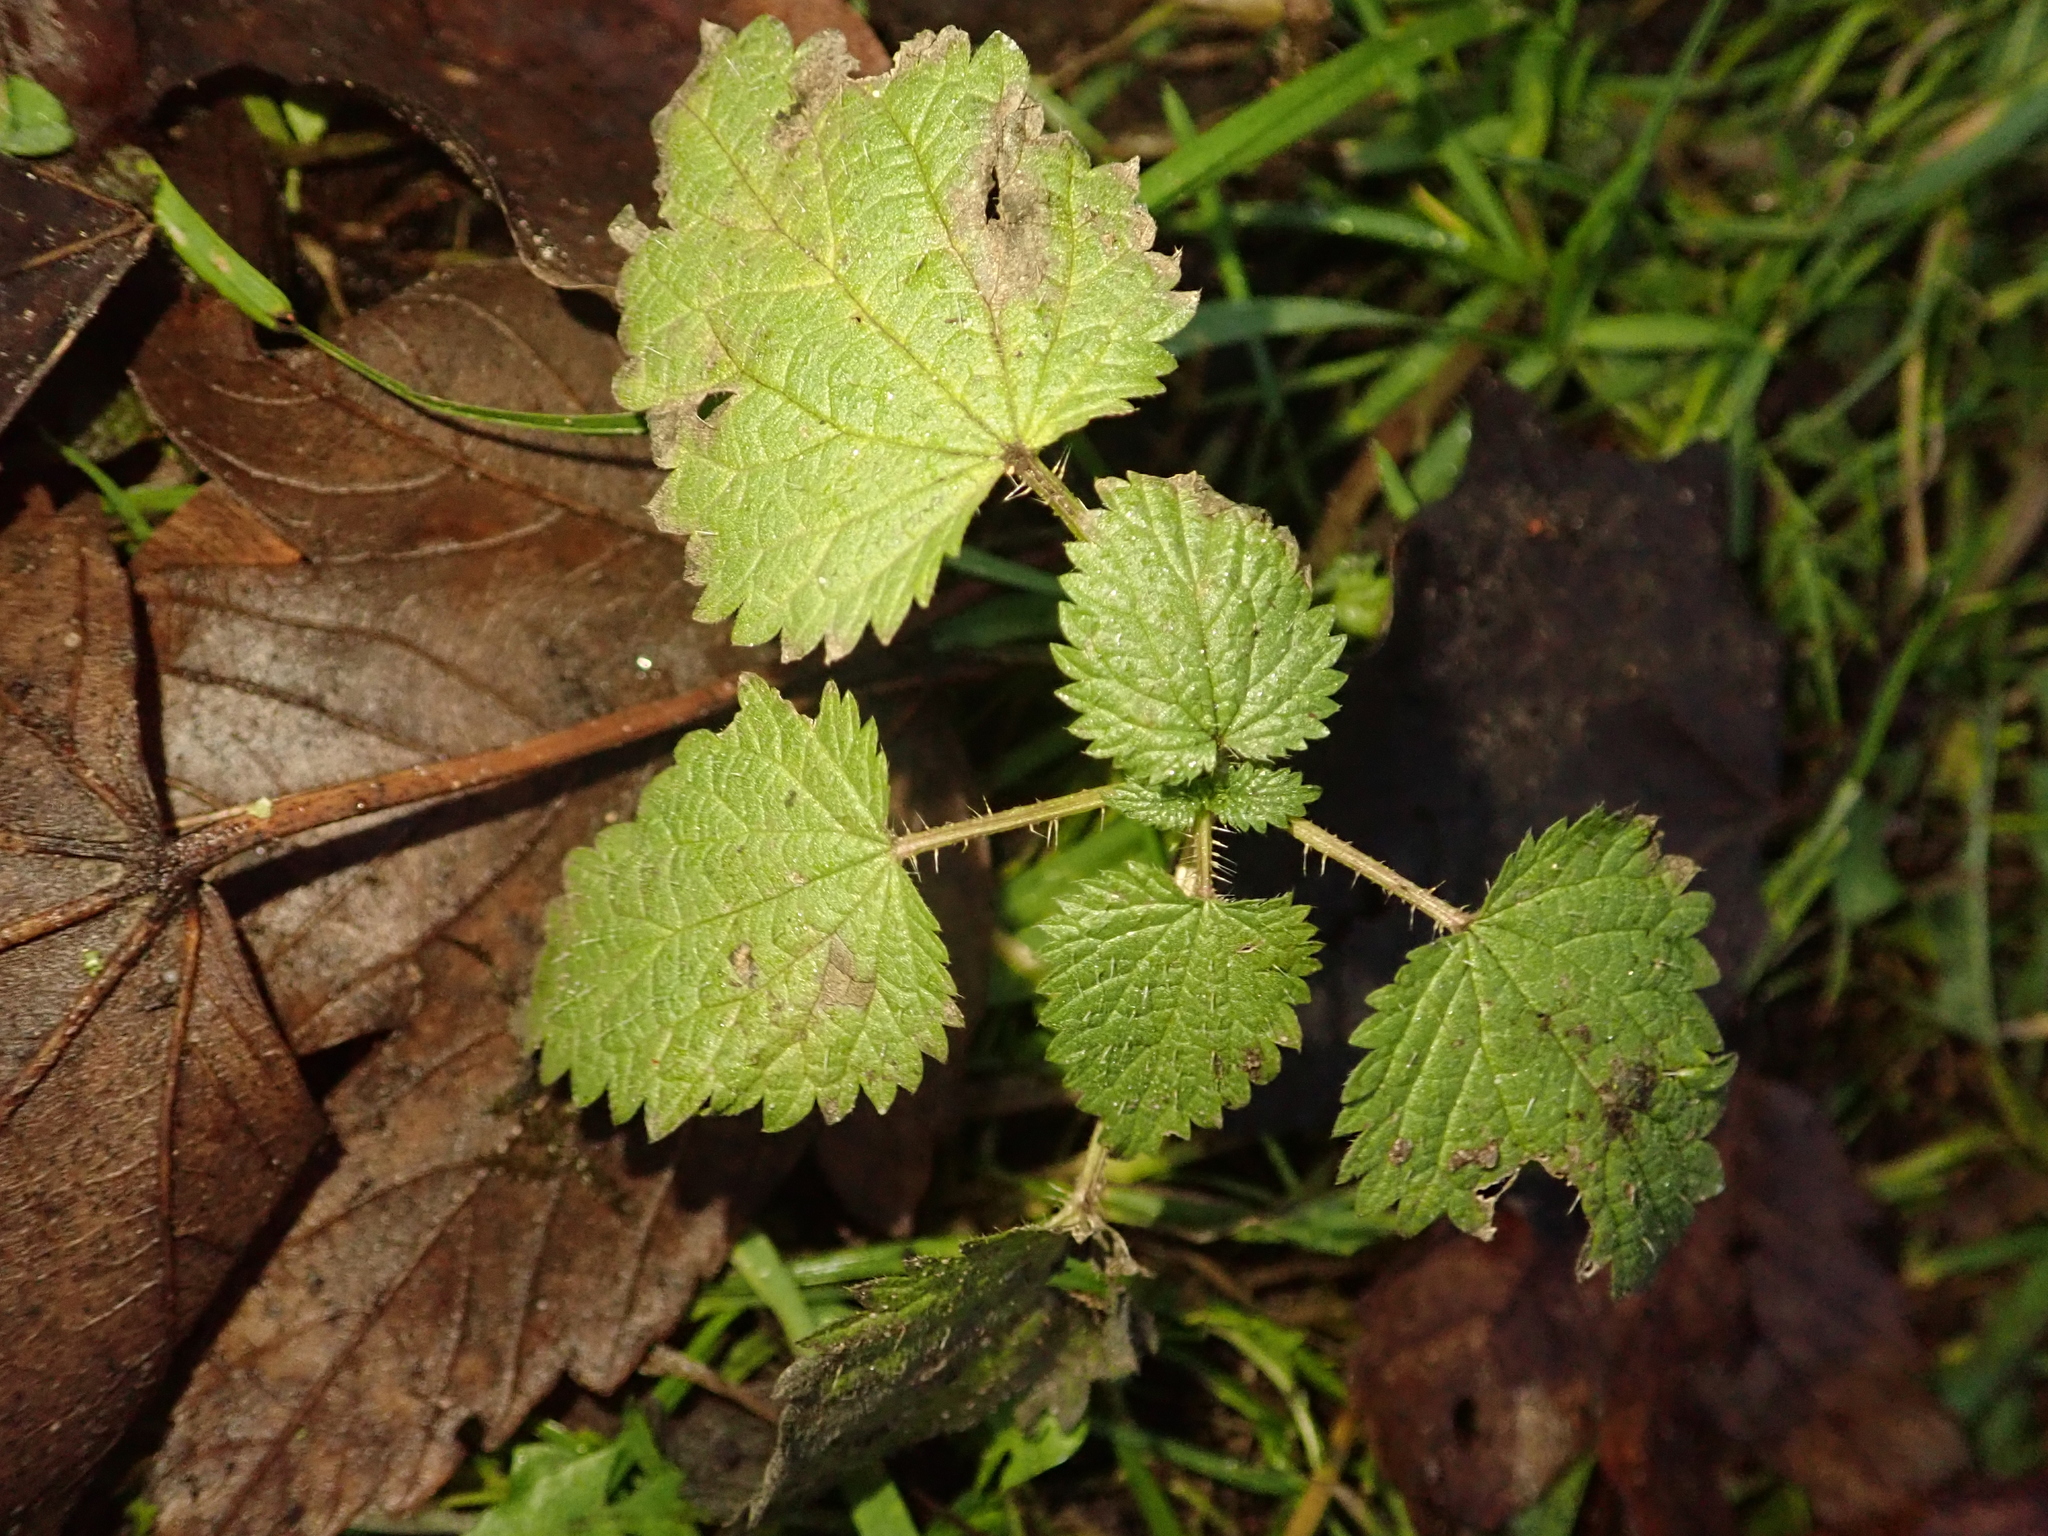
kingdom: Plantae
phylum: Tracheophyta
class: Magnoliopsida
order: Rosales
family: Urticaceae
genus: Urtica
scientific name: Urtica dioica
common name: Common nettle
